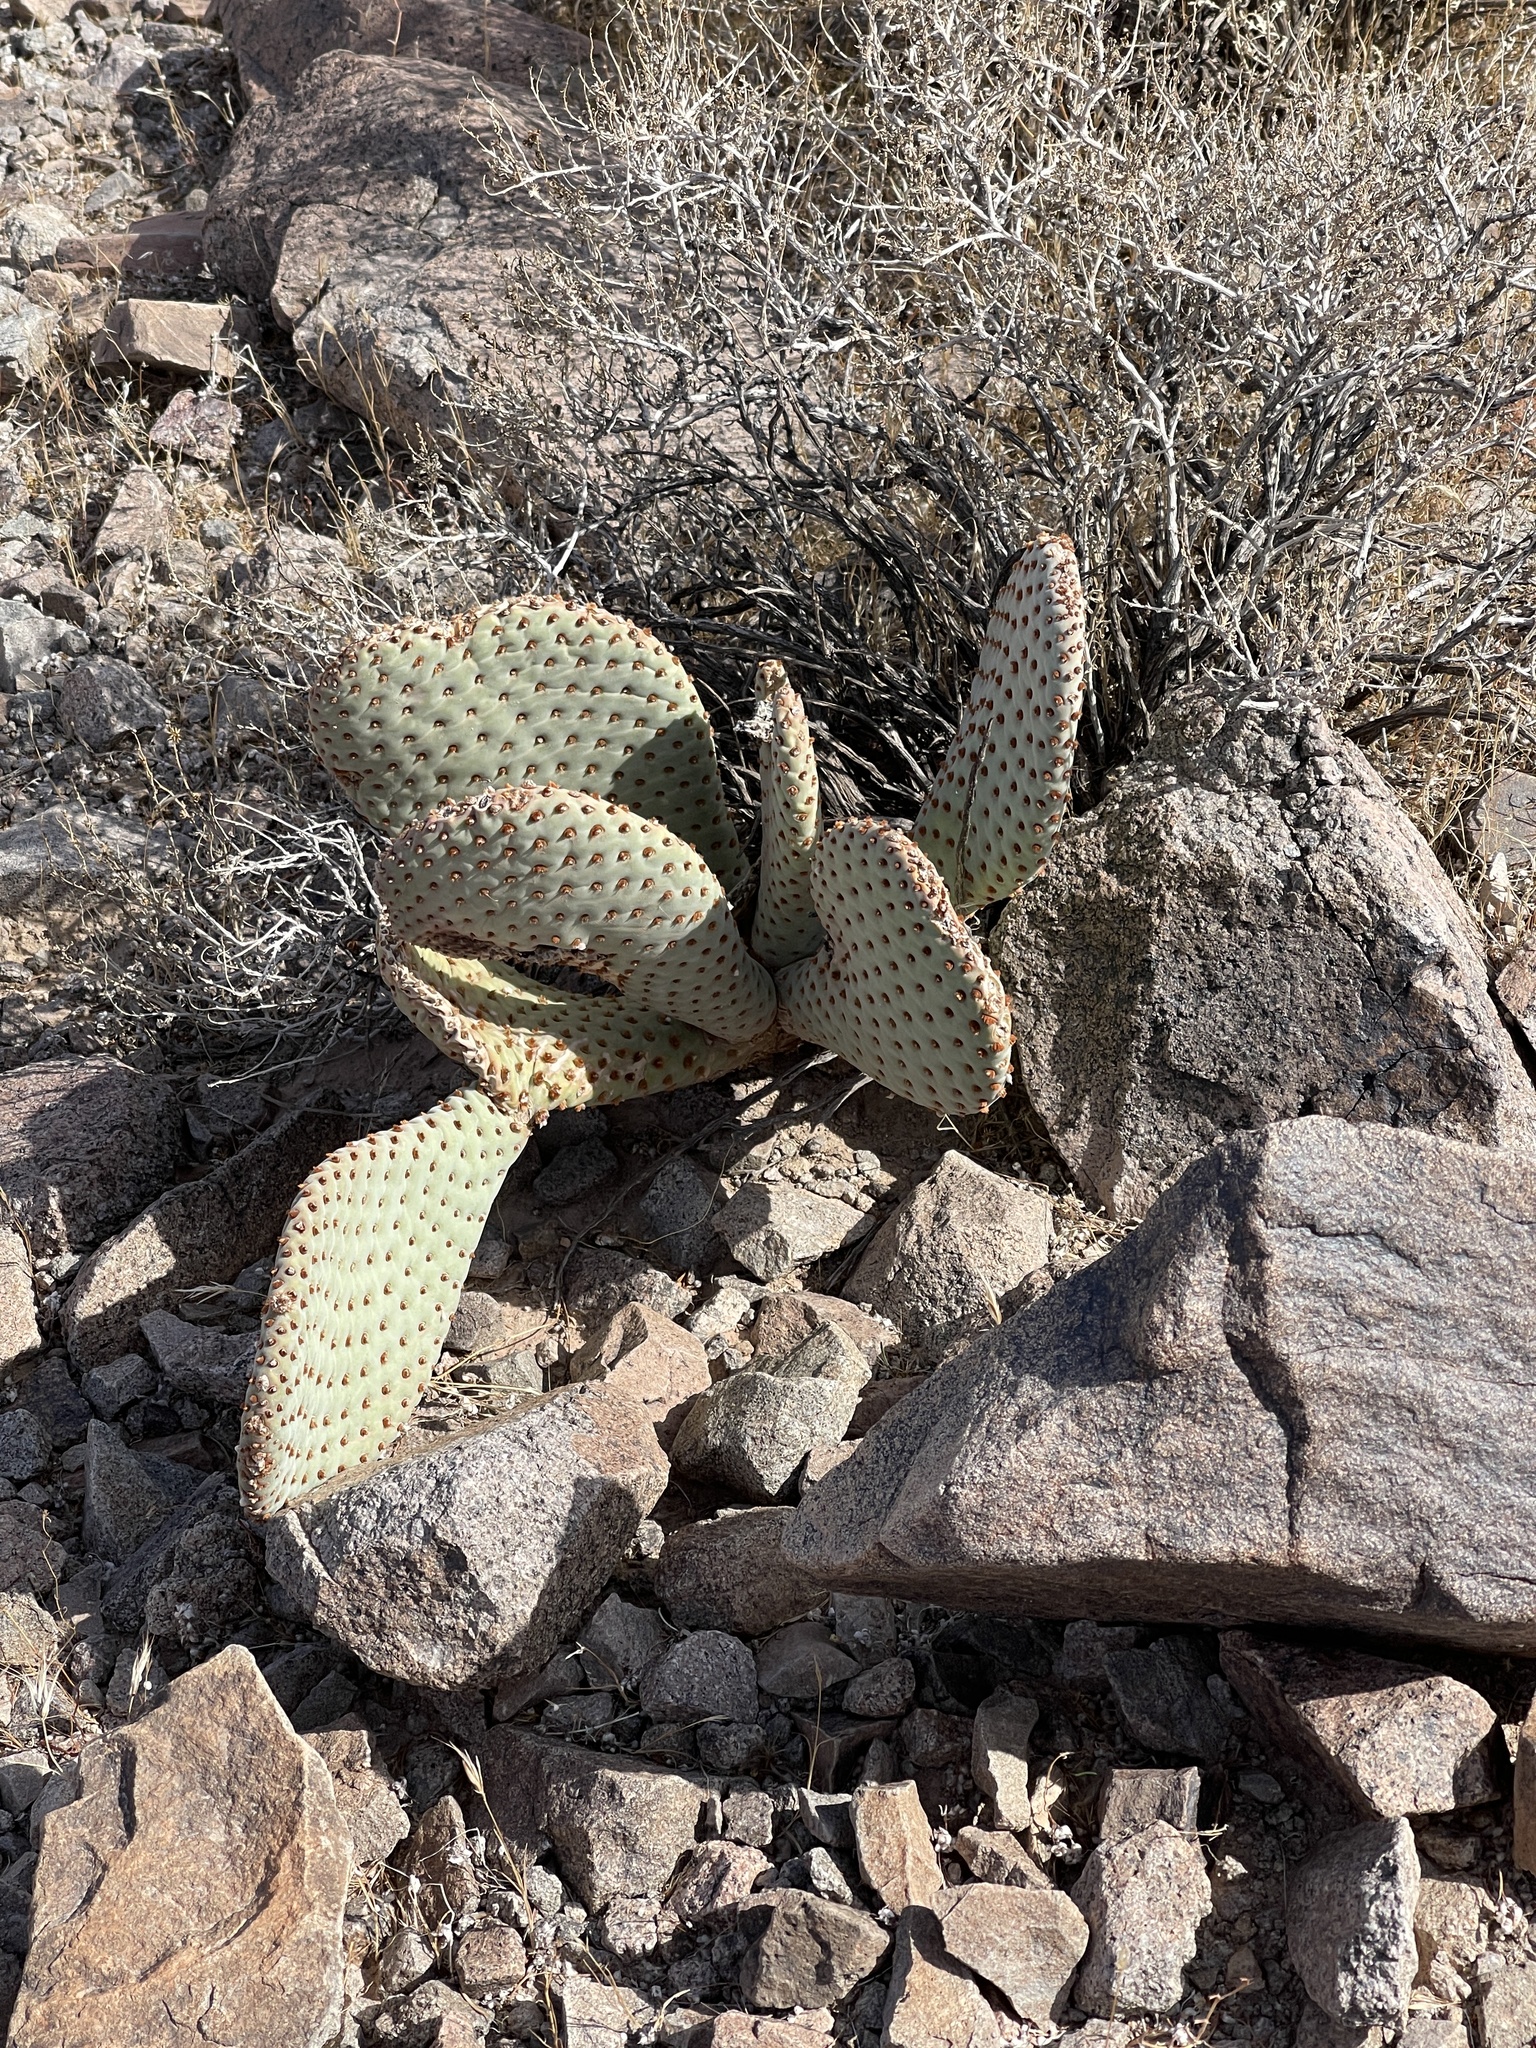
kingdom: Plantae
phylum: Tracheophyta
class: Magnoliopsida
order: Caryophyllales
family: Cactaceae
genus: Opuntia
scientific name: Opuntia basilaris
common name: Beavertail prickly-pear
